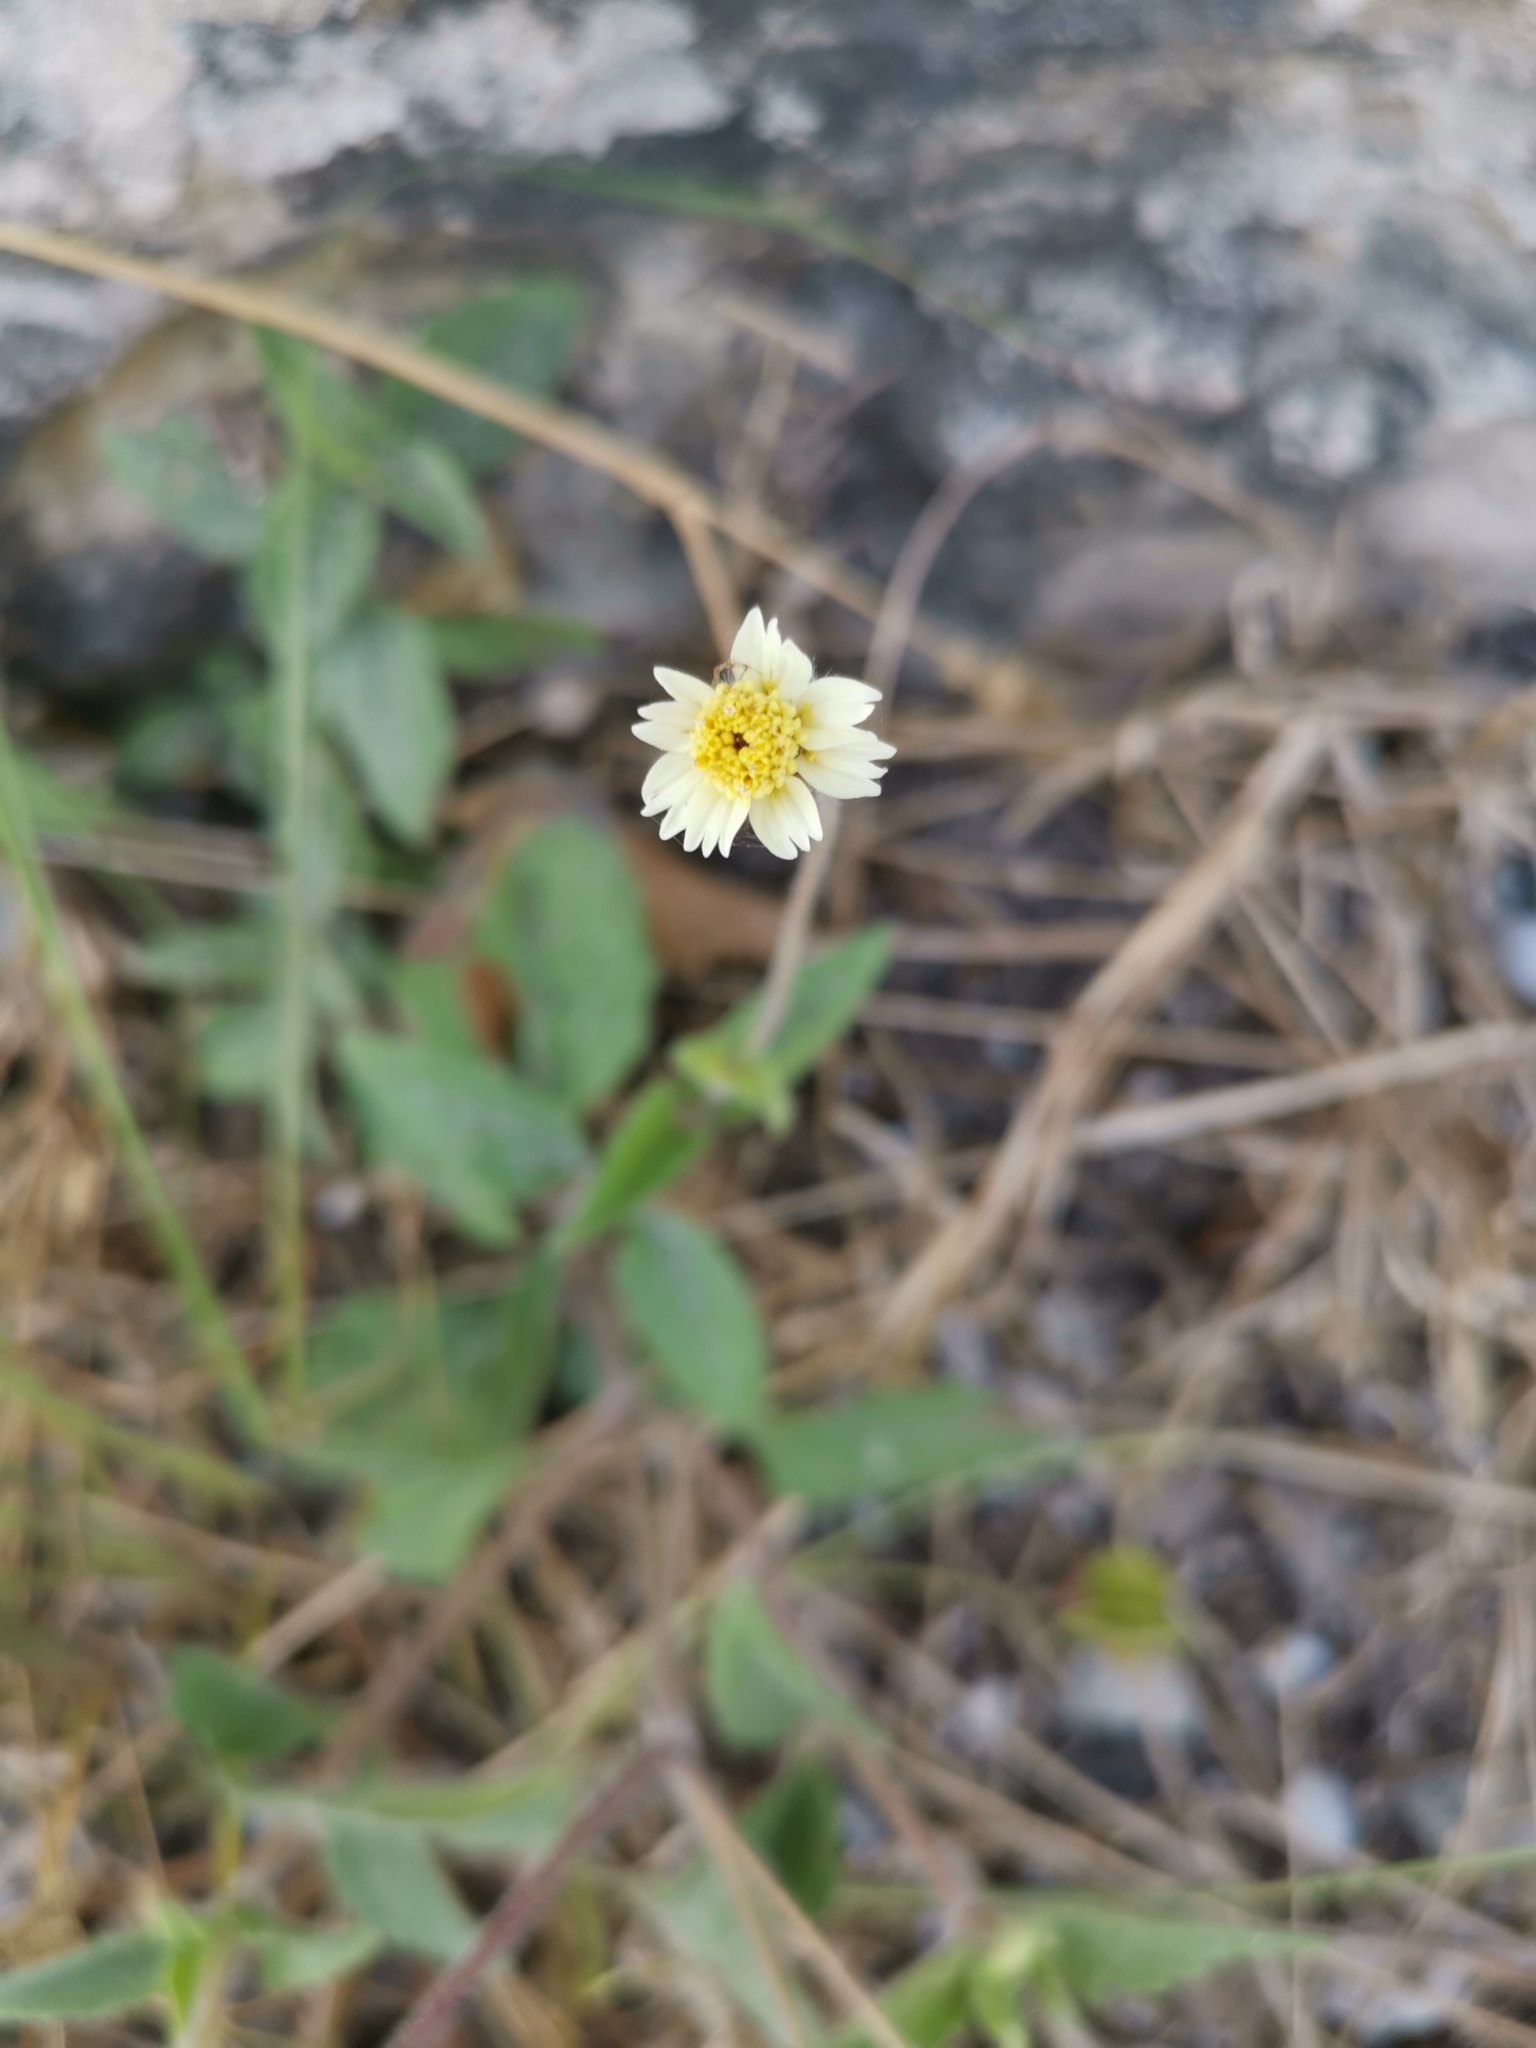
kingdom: Plantae
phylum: Tracheophyta
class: Magnoliopsida
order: Asterales
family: Asteraceae
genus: Tridax
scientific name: Tridax procumbens
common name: Coatbuttons
